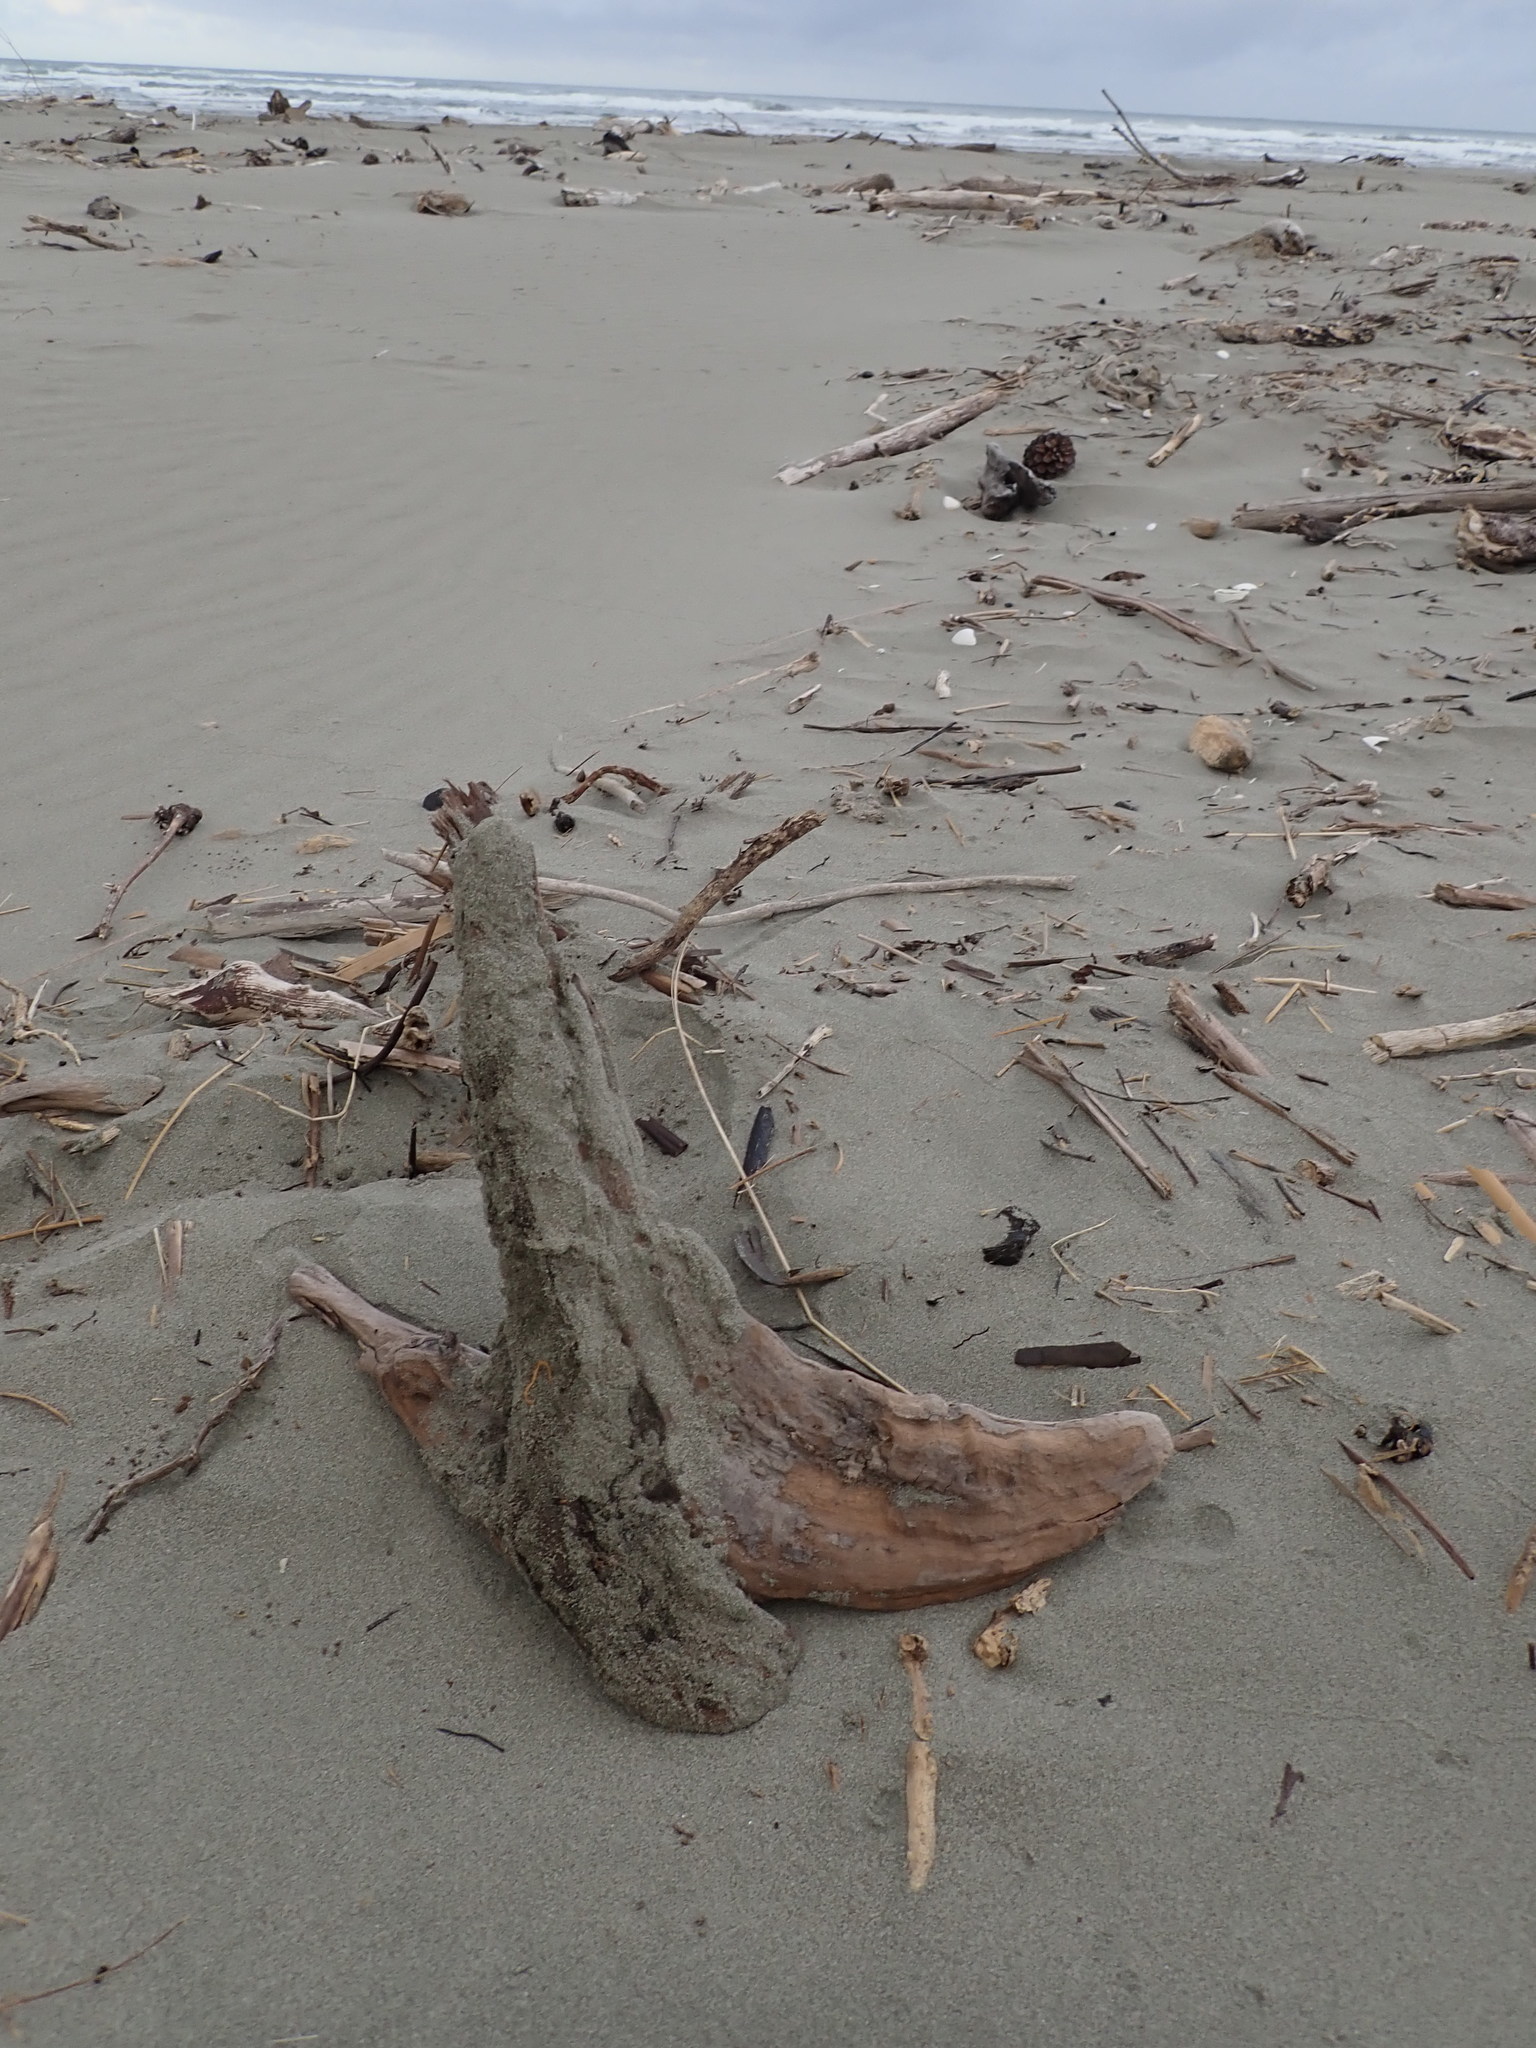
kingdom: Animalia
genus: Lagrioda
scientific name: Lagrioda brounii
